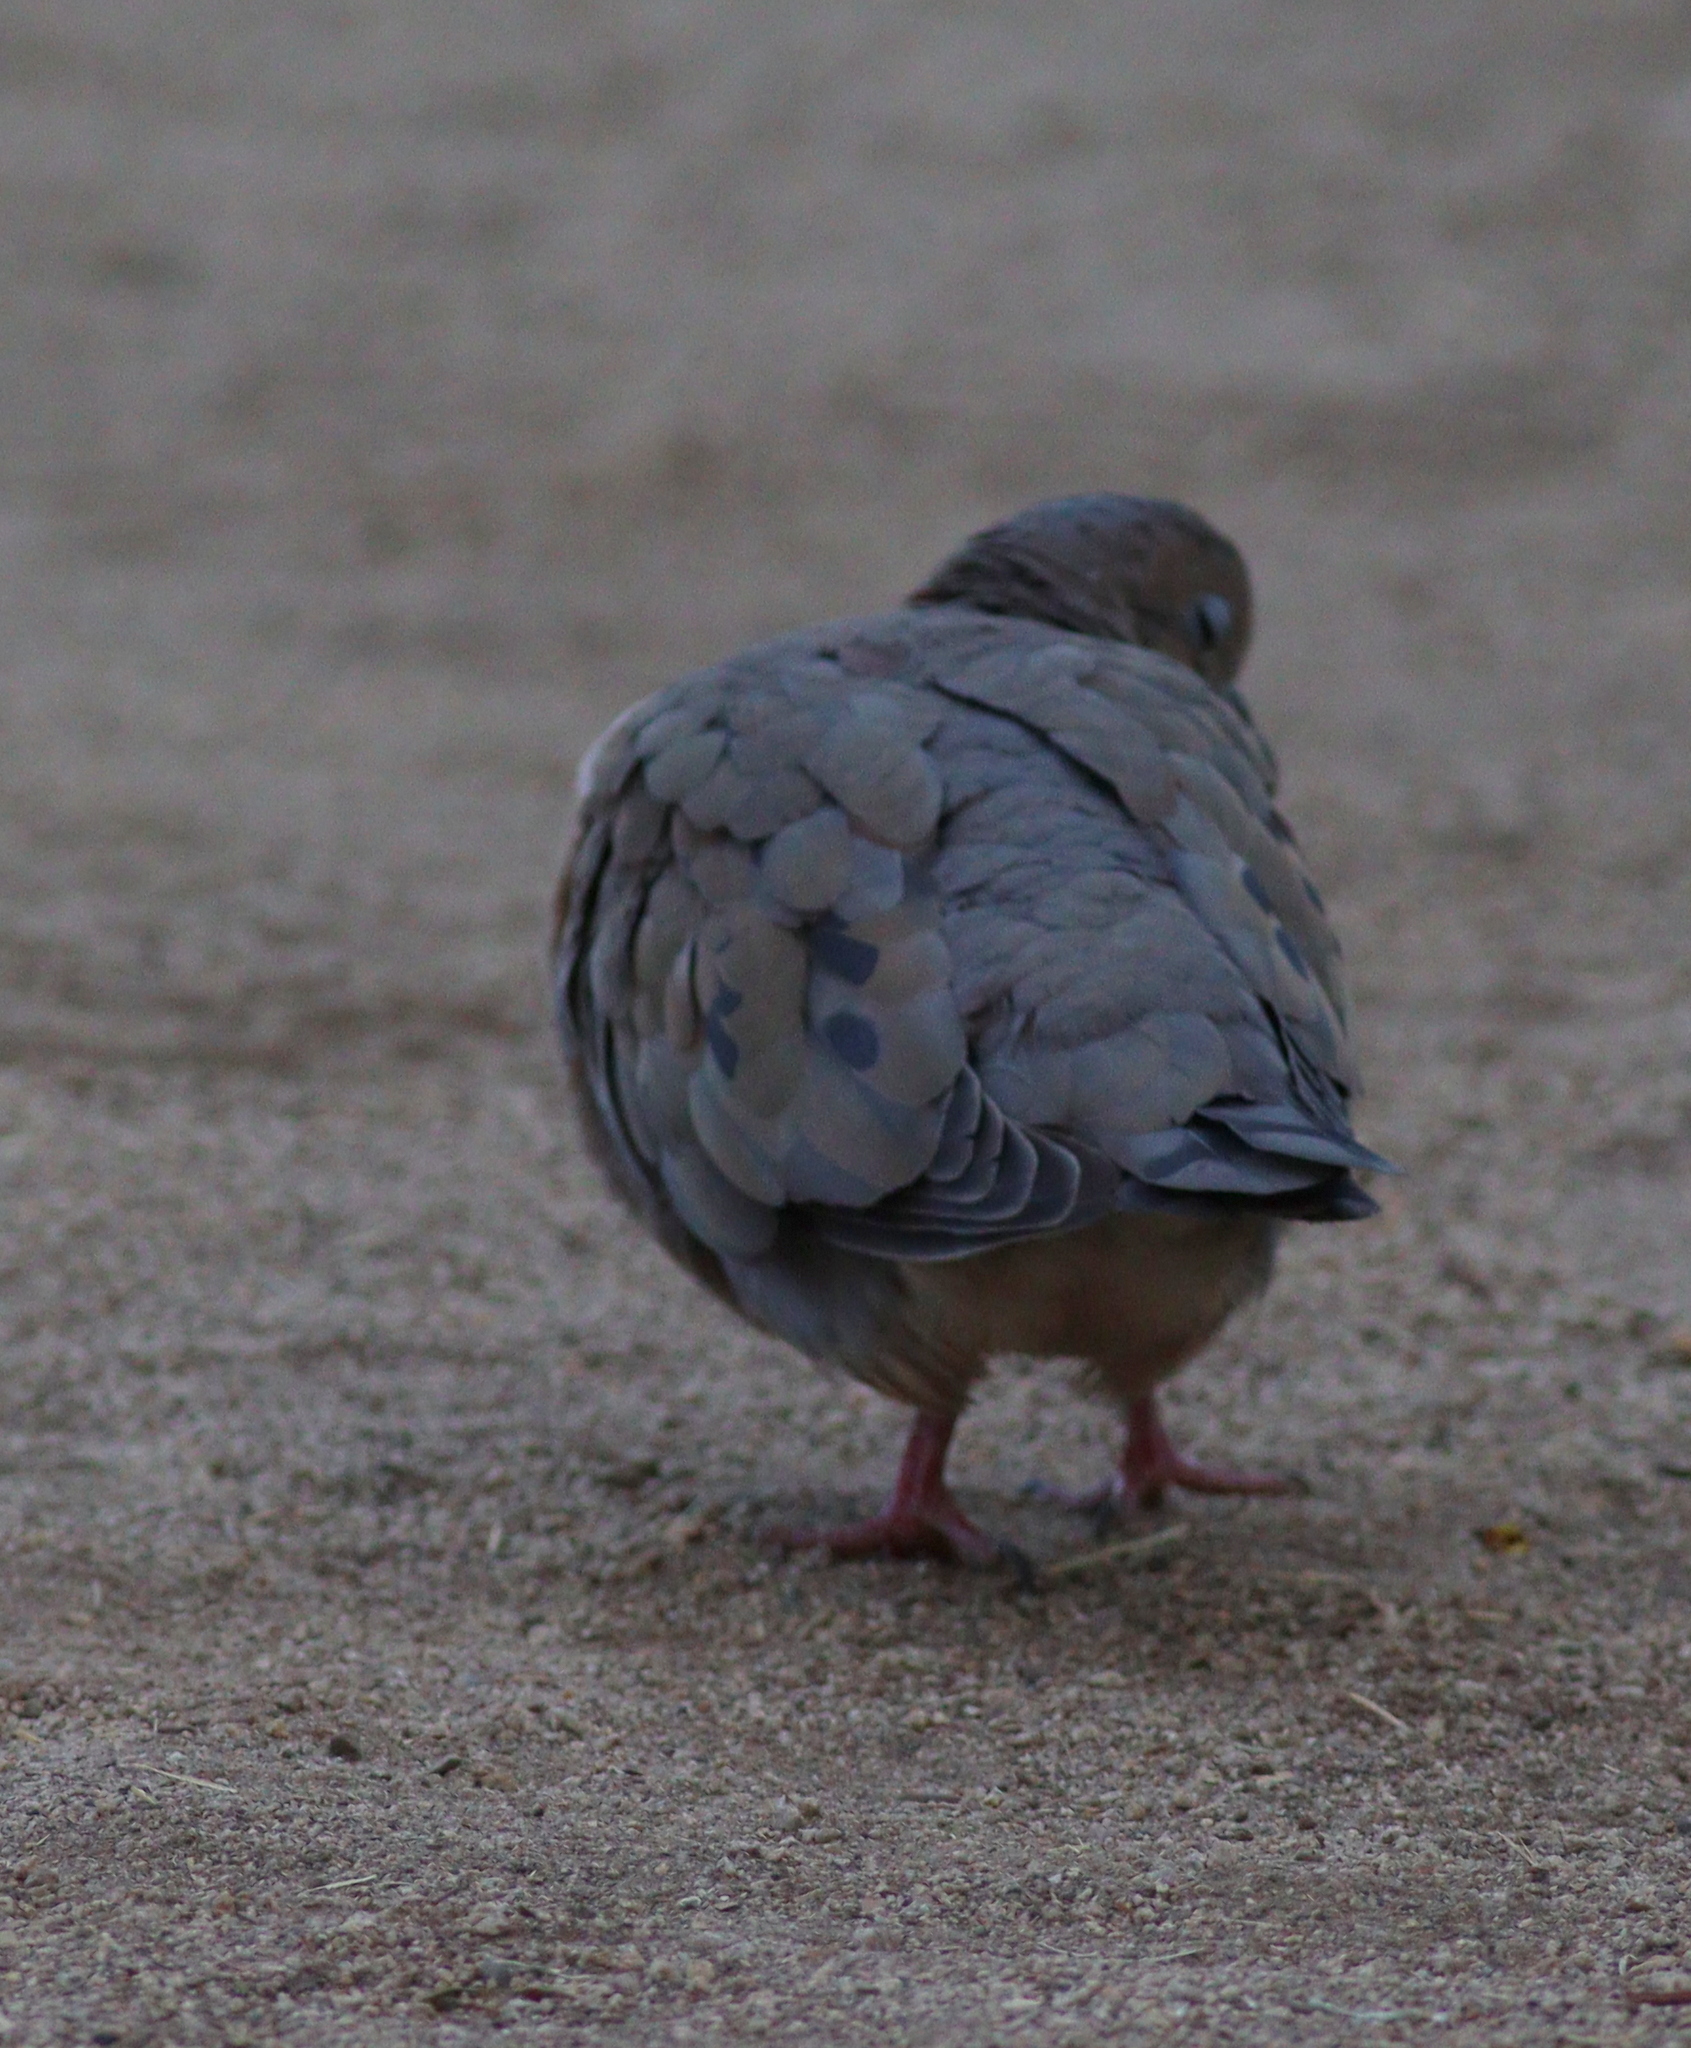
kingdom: Animalia
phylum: Chordata
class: Aves
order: Columbiformes
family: Columbidae
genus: Zenaida
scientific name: Zenaida auriculata
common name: Eared dove
